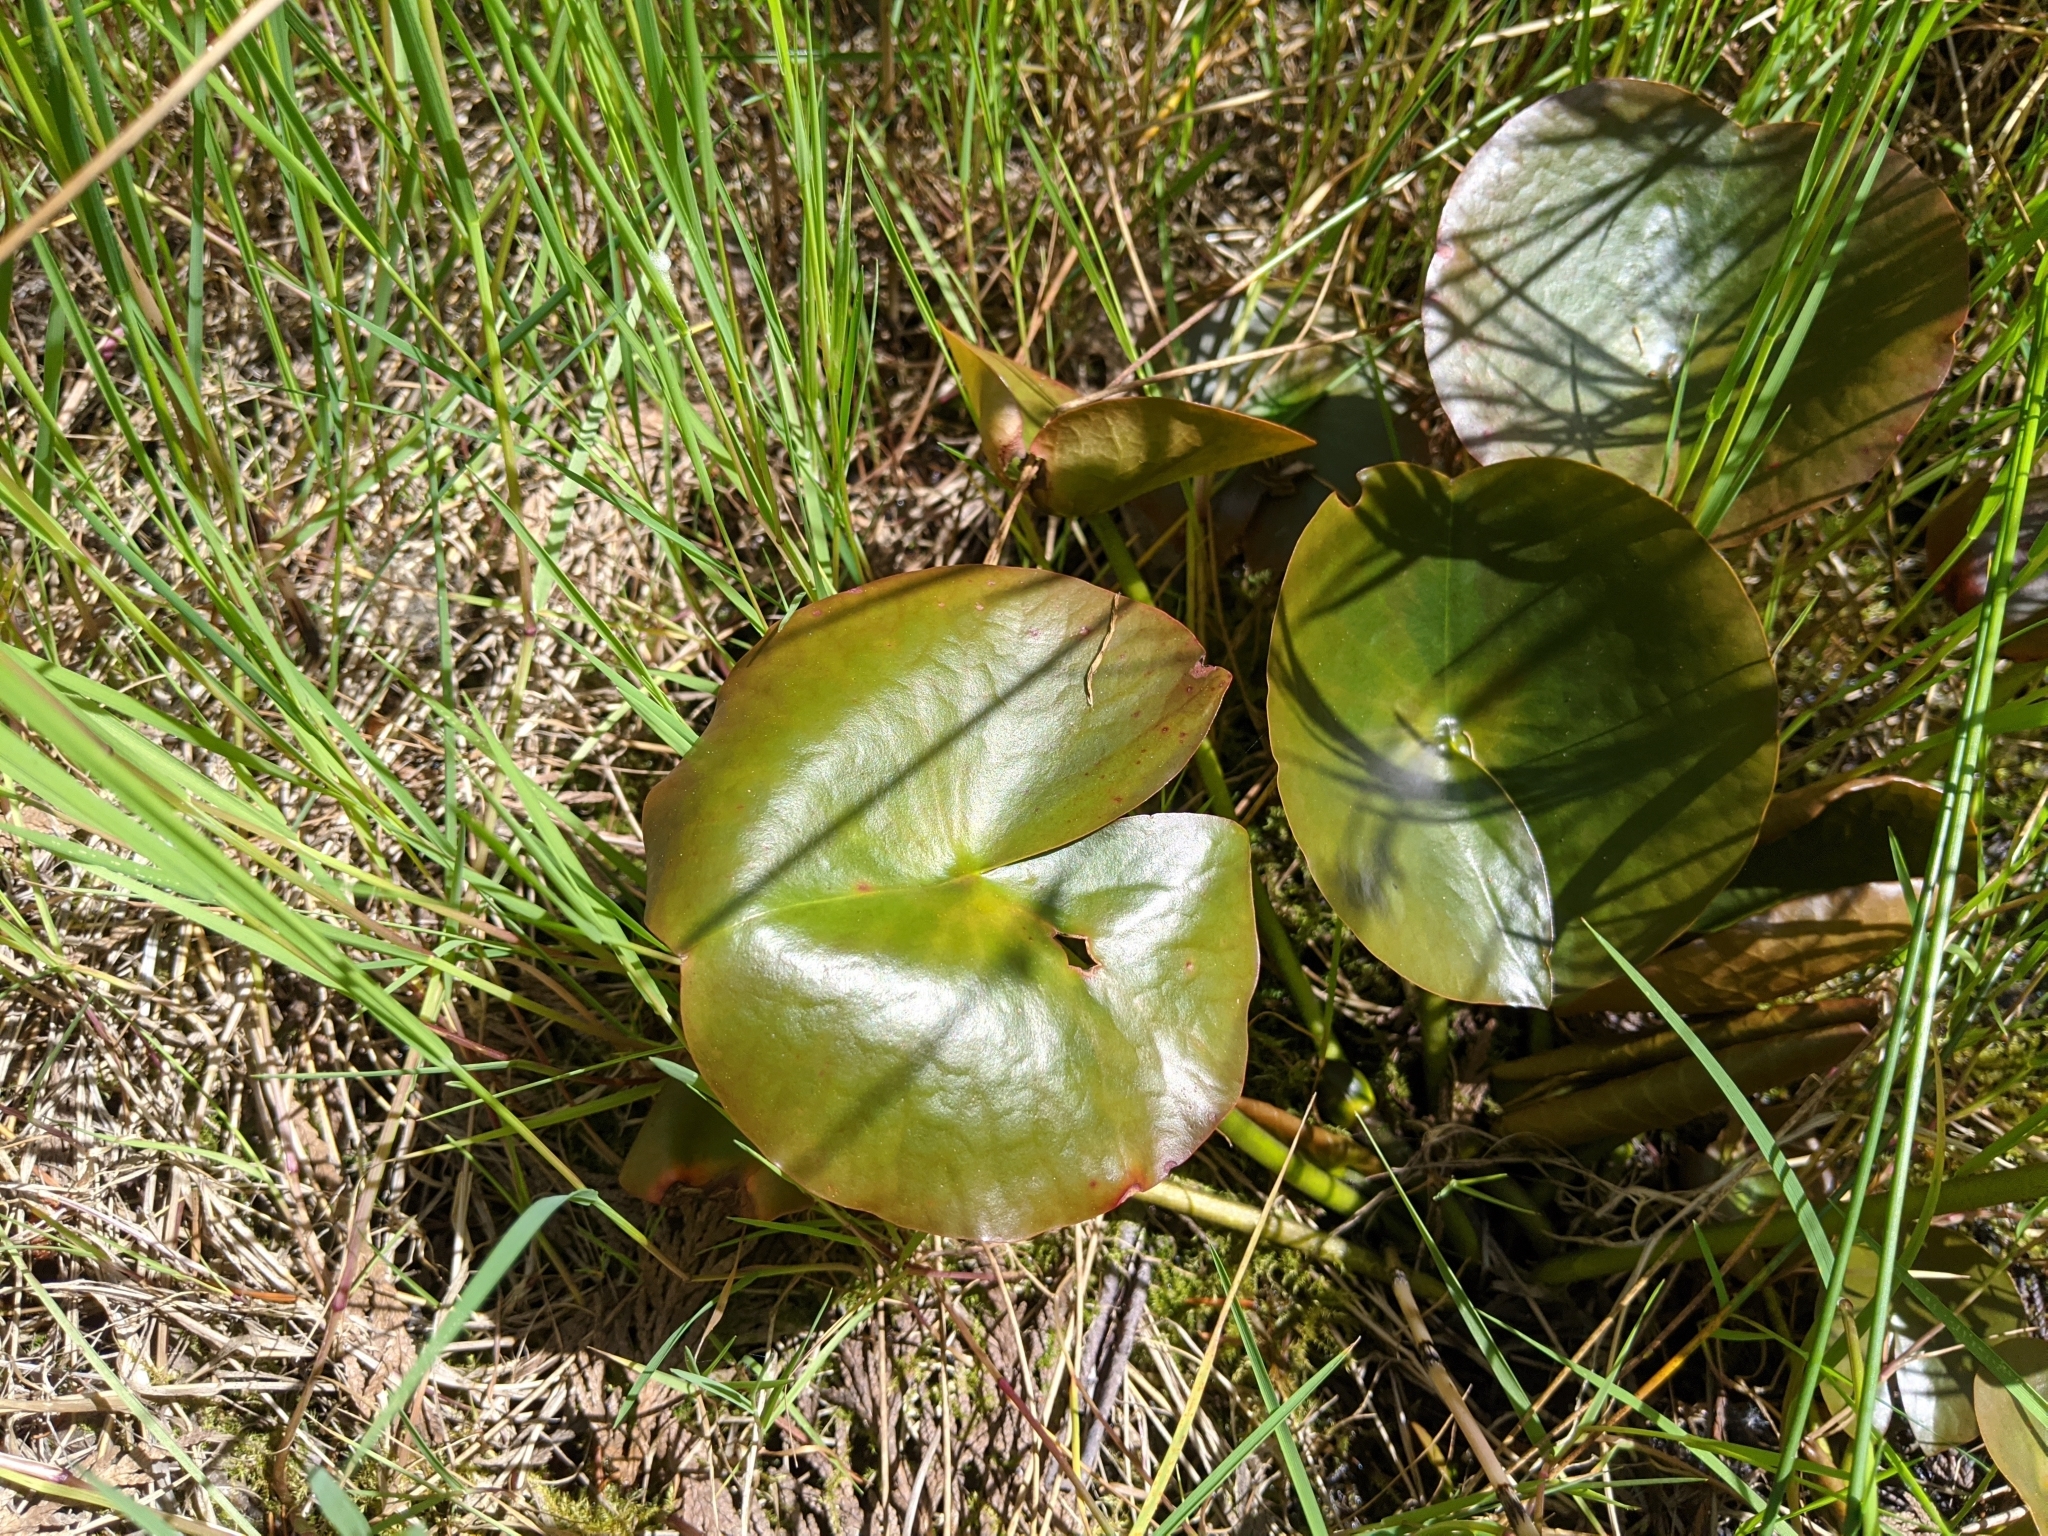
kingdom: Plantae
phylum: Tracheophyta
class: Magnoliopsida
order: Nymphaeales
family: Nymphaeaceae
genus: Nymphaea
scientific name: Nymphaea odorata
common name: Fragrant water-lily
